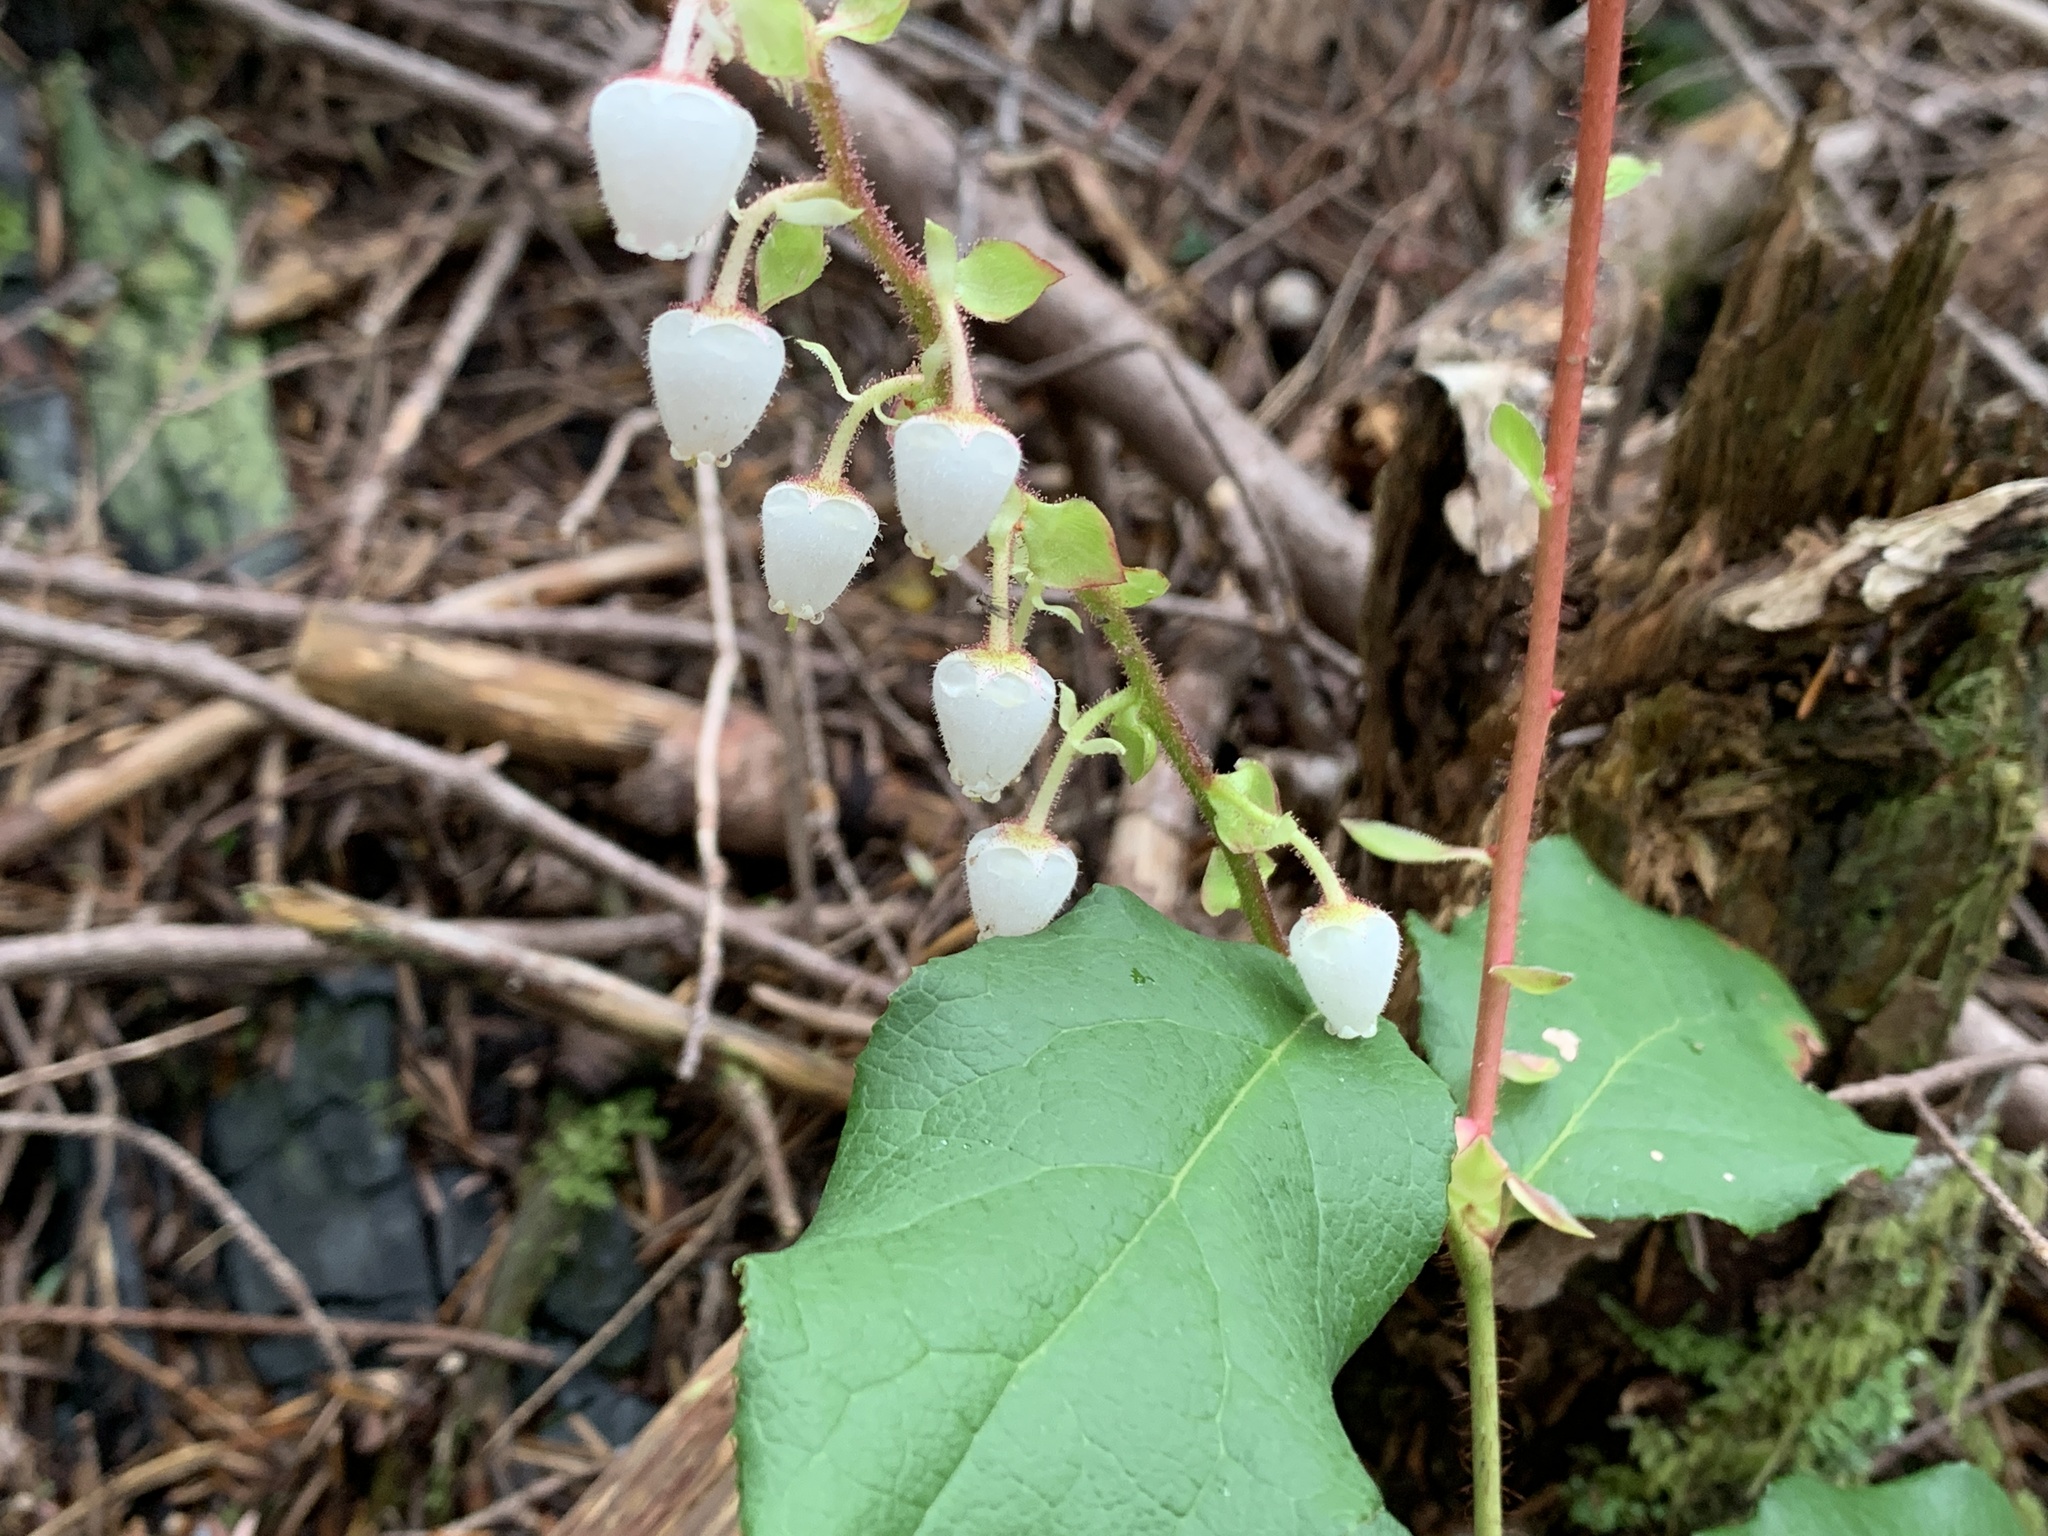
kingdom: Plantae
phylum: Tracheophyta
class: Magnoliopsida
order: Ericales
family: Ericaceae
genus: Gaultheria
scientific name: Gaultheria shallon
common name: Shallon
